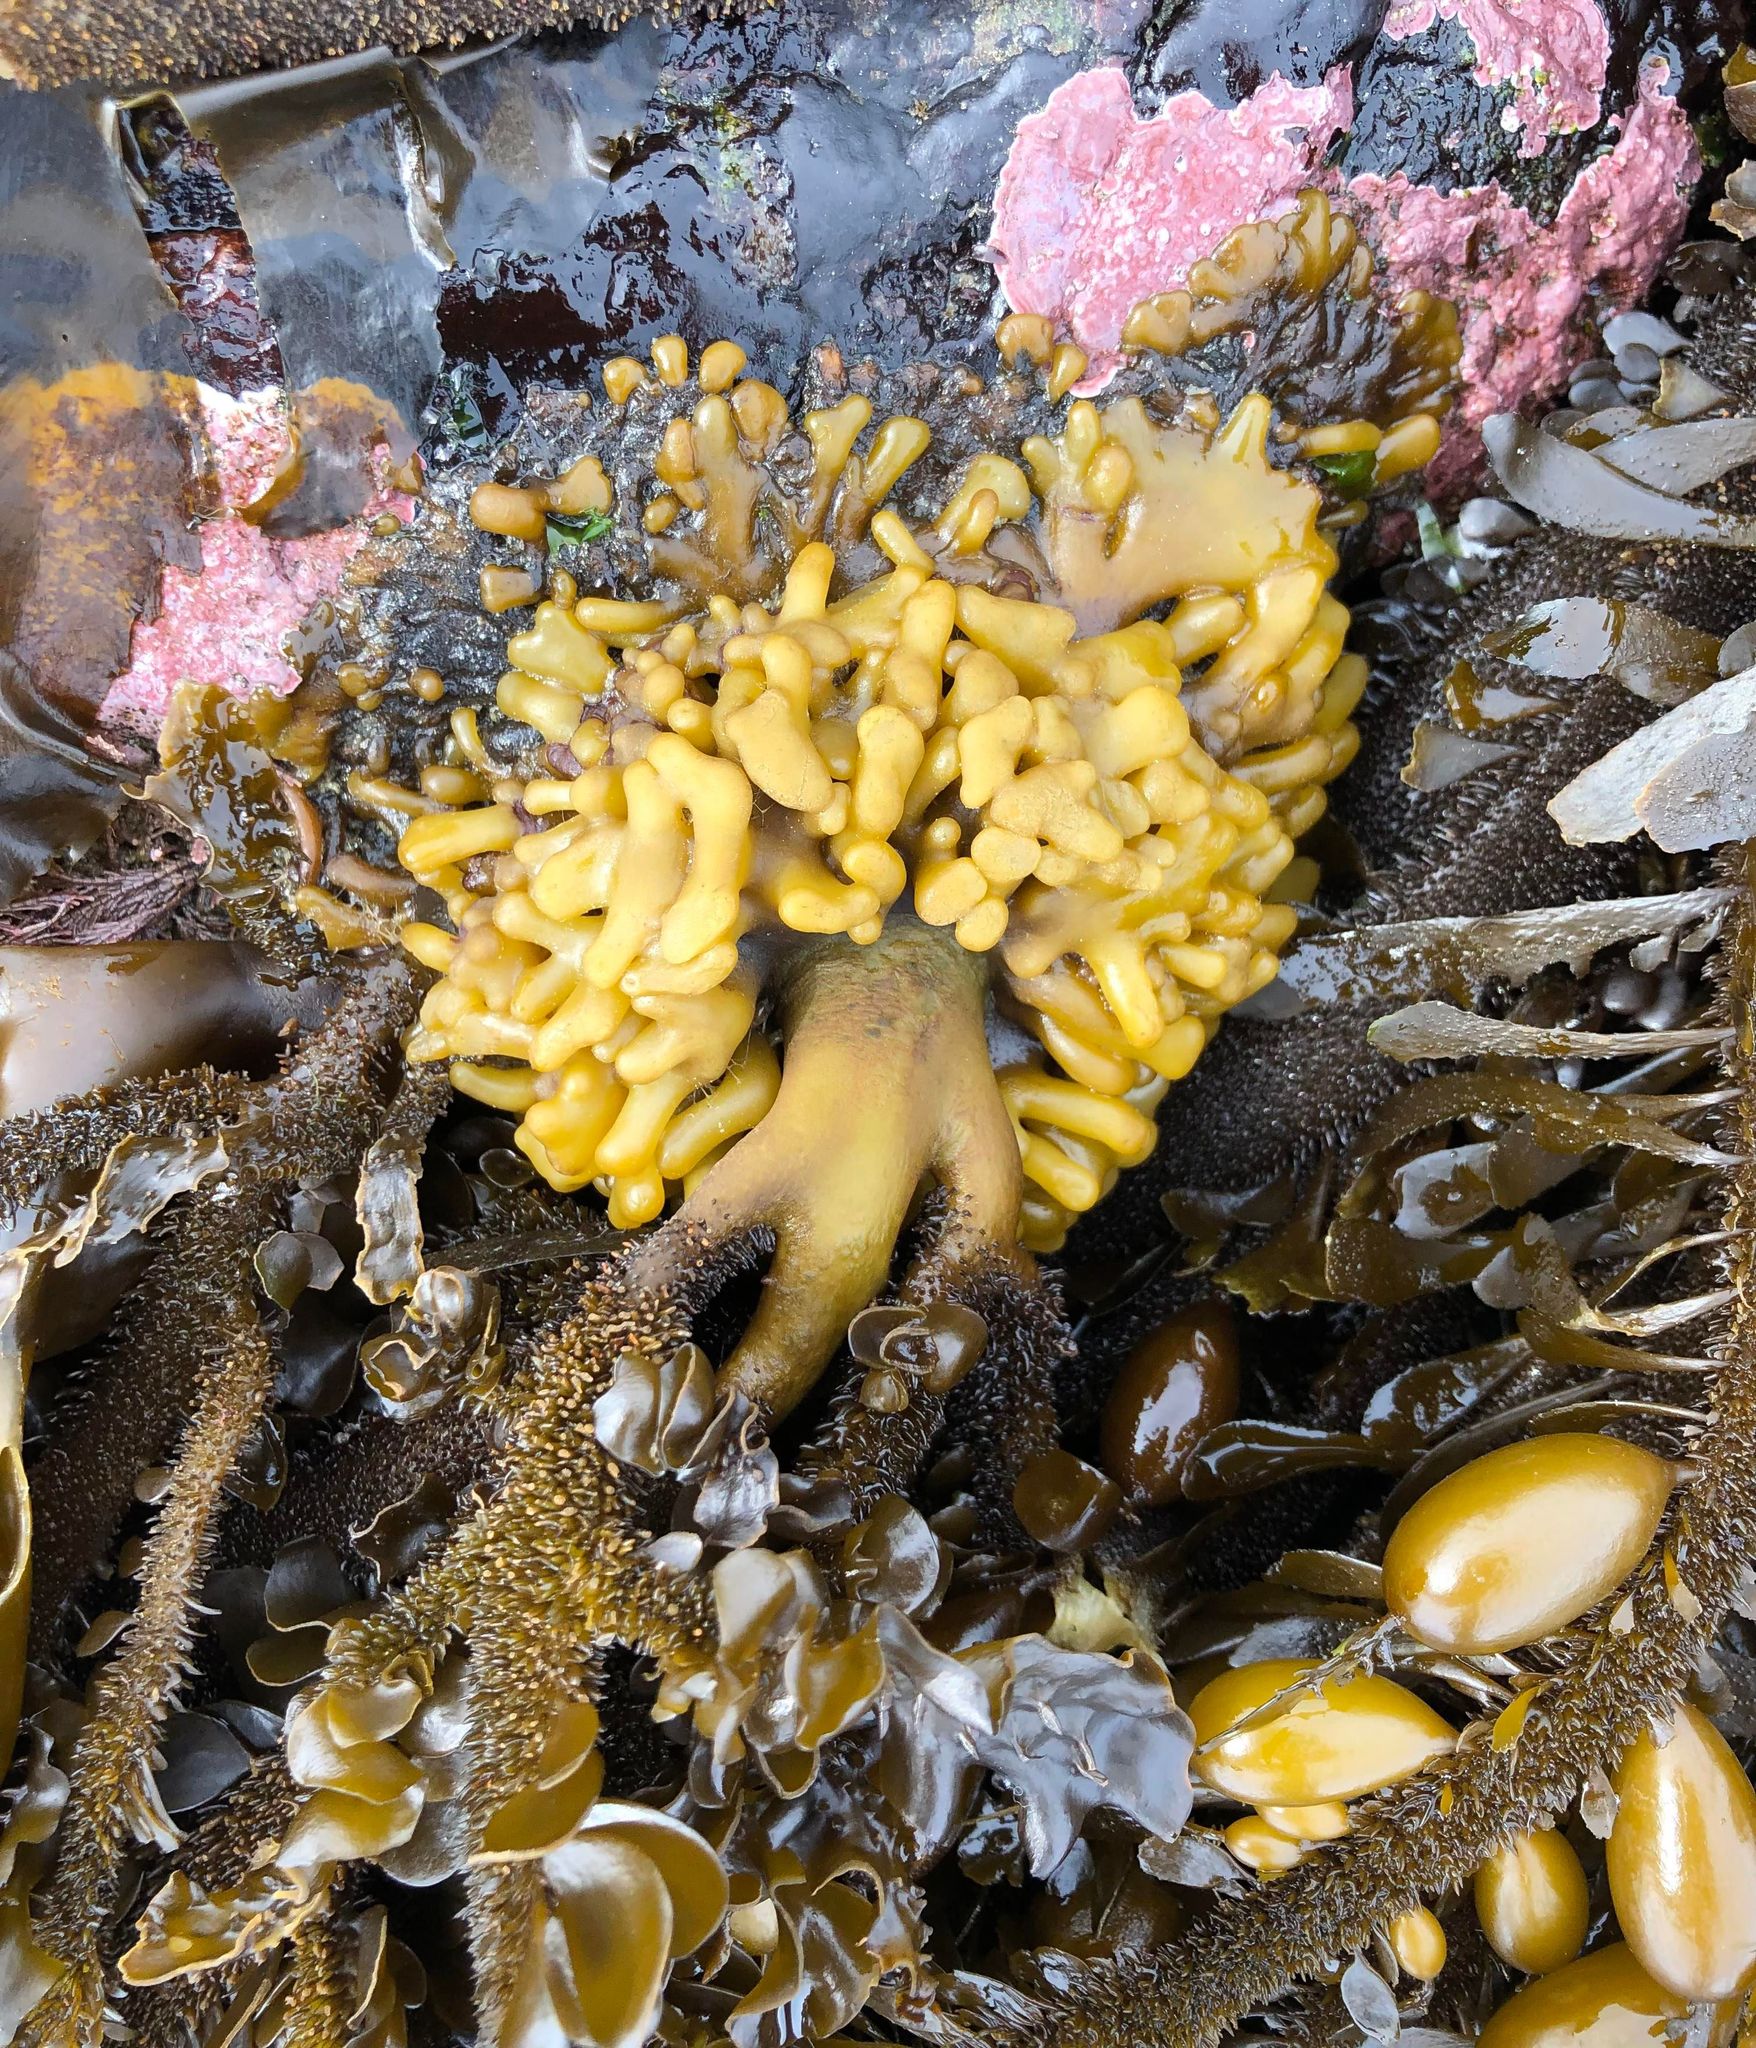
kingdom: Chromista
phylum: Ochrophyta
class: Phaeophyceae
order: Laminariales
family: Lessoniaceae
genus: Egregia
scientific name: Egregia menziesii
